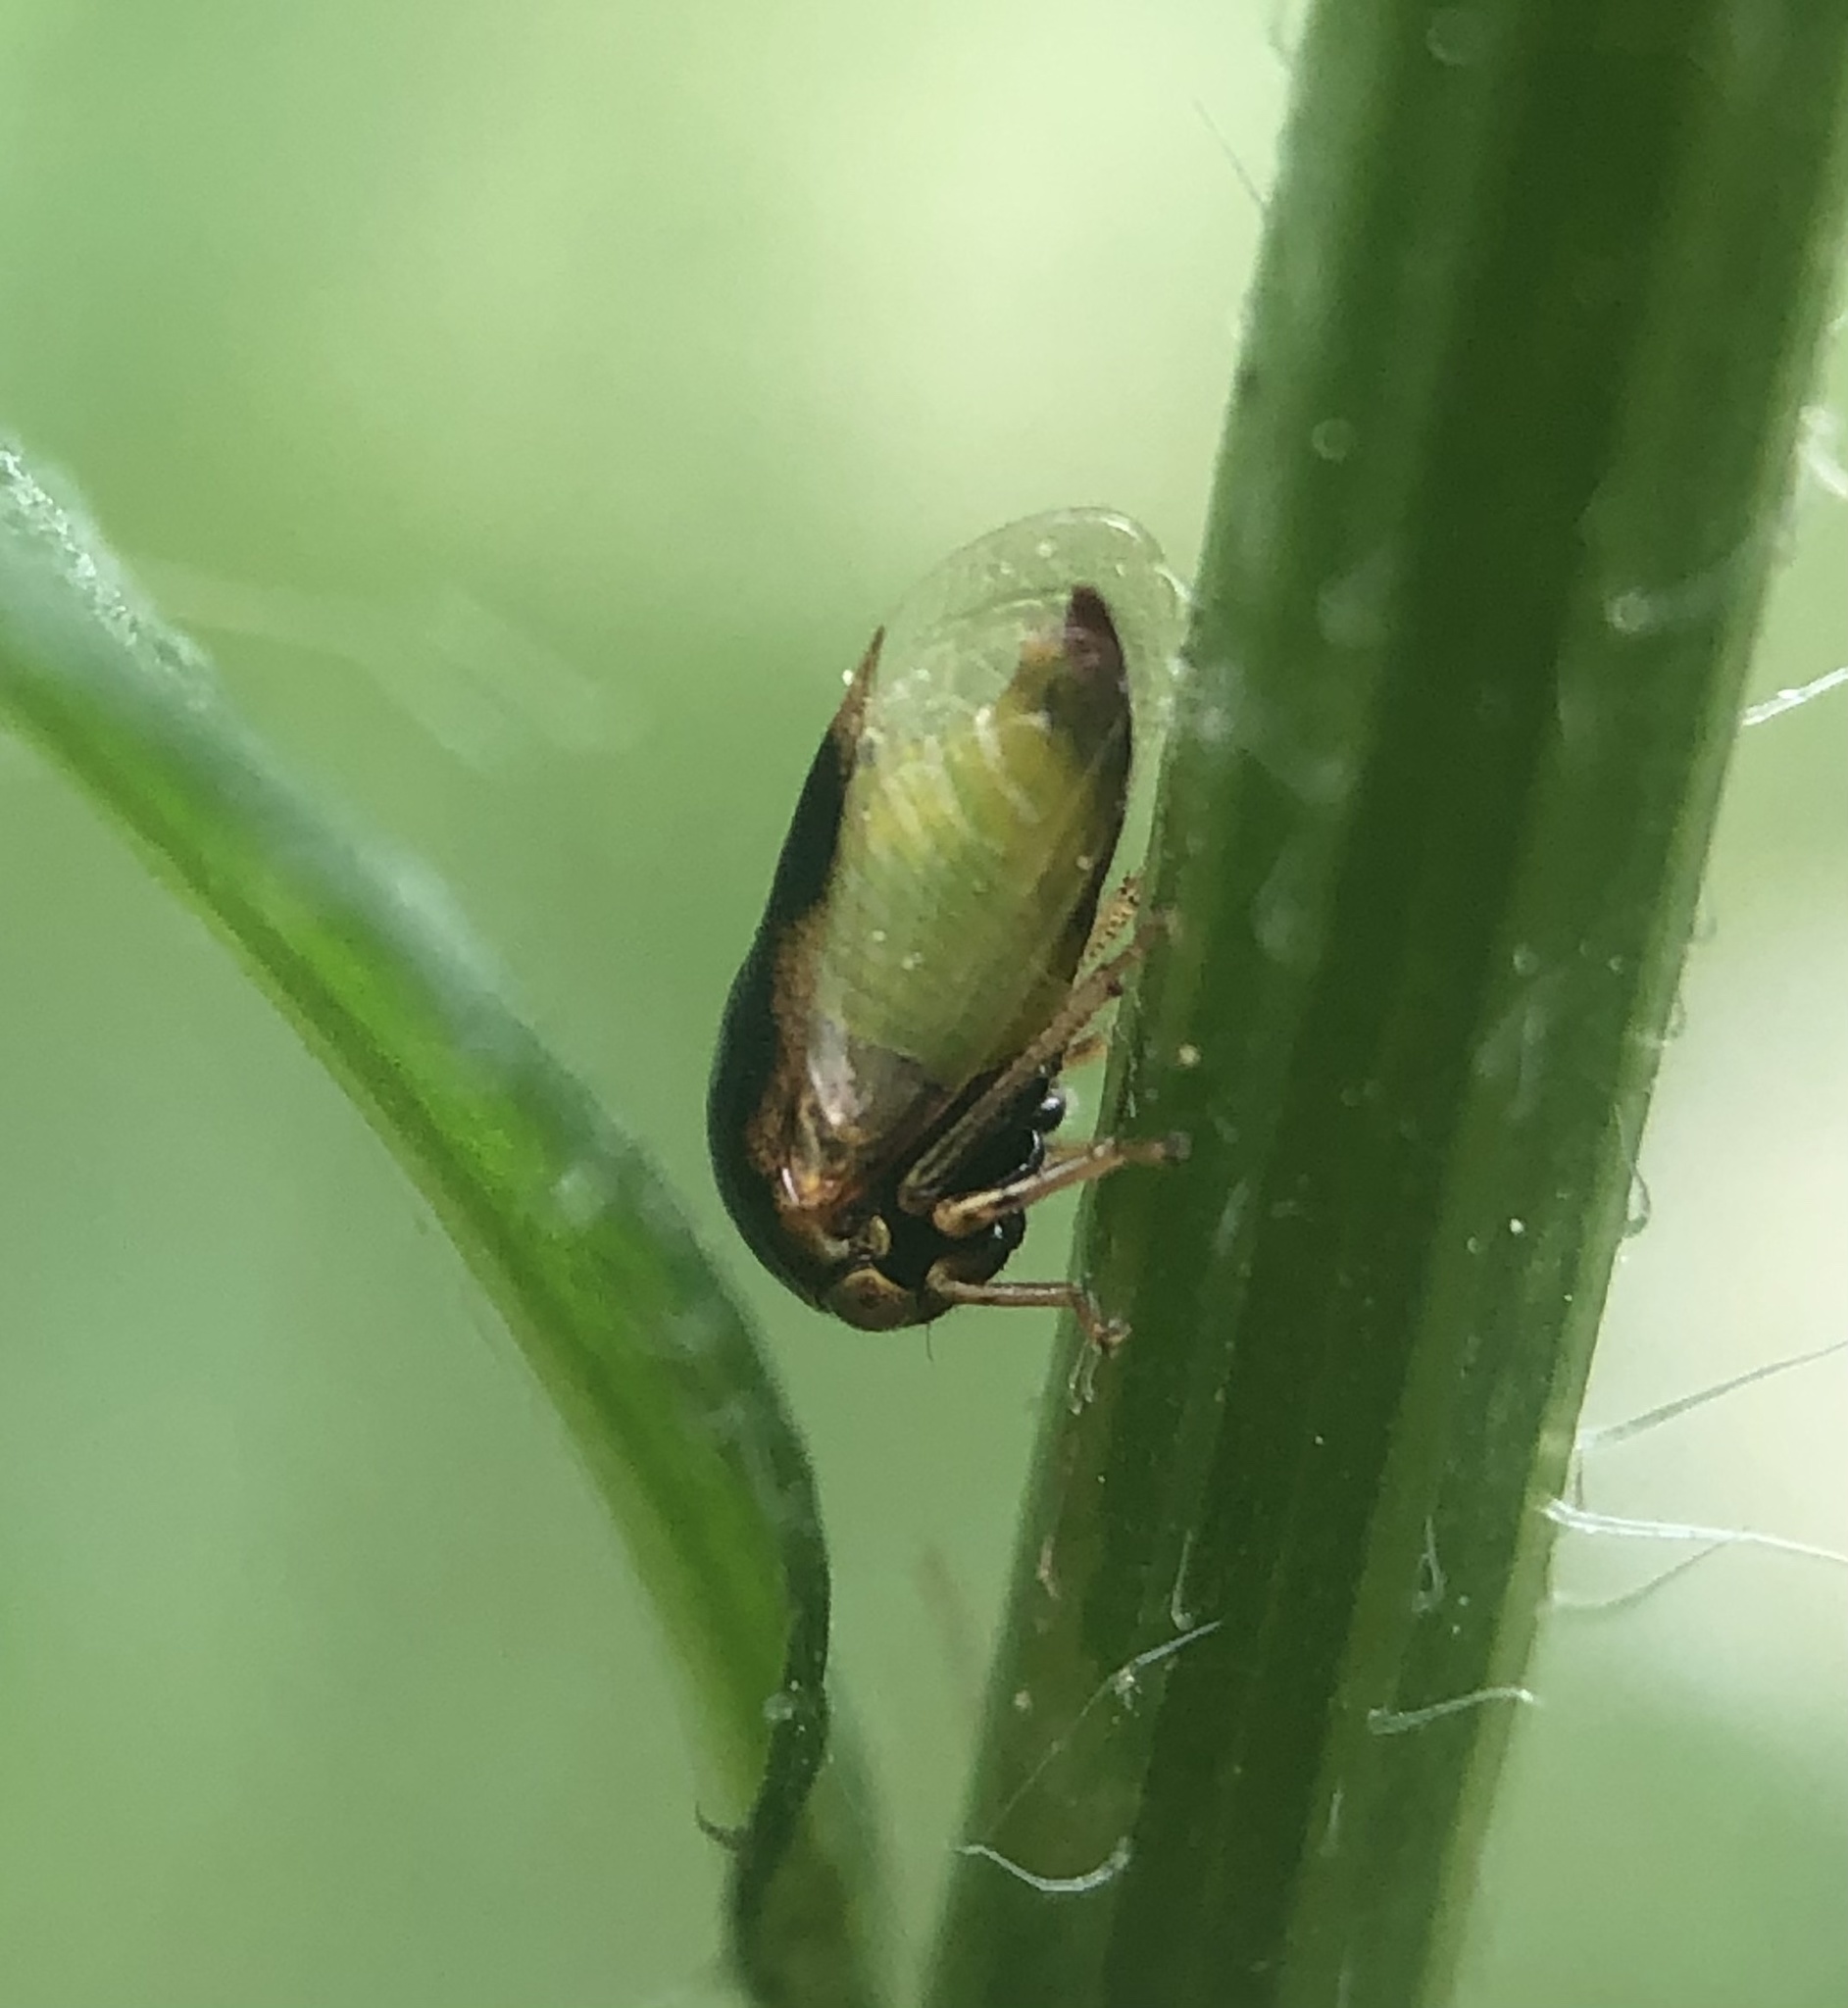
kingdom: Animalia
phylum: Arthropoda
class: Insecta
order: Hemiptera
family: Membracidae
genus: Micrutalis
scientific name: Micrutalis calva
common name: Honeylocust treehopper
